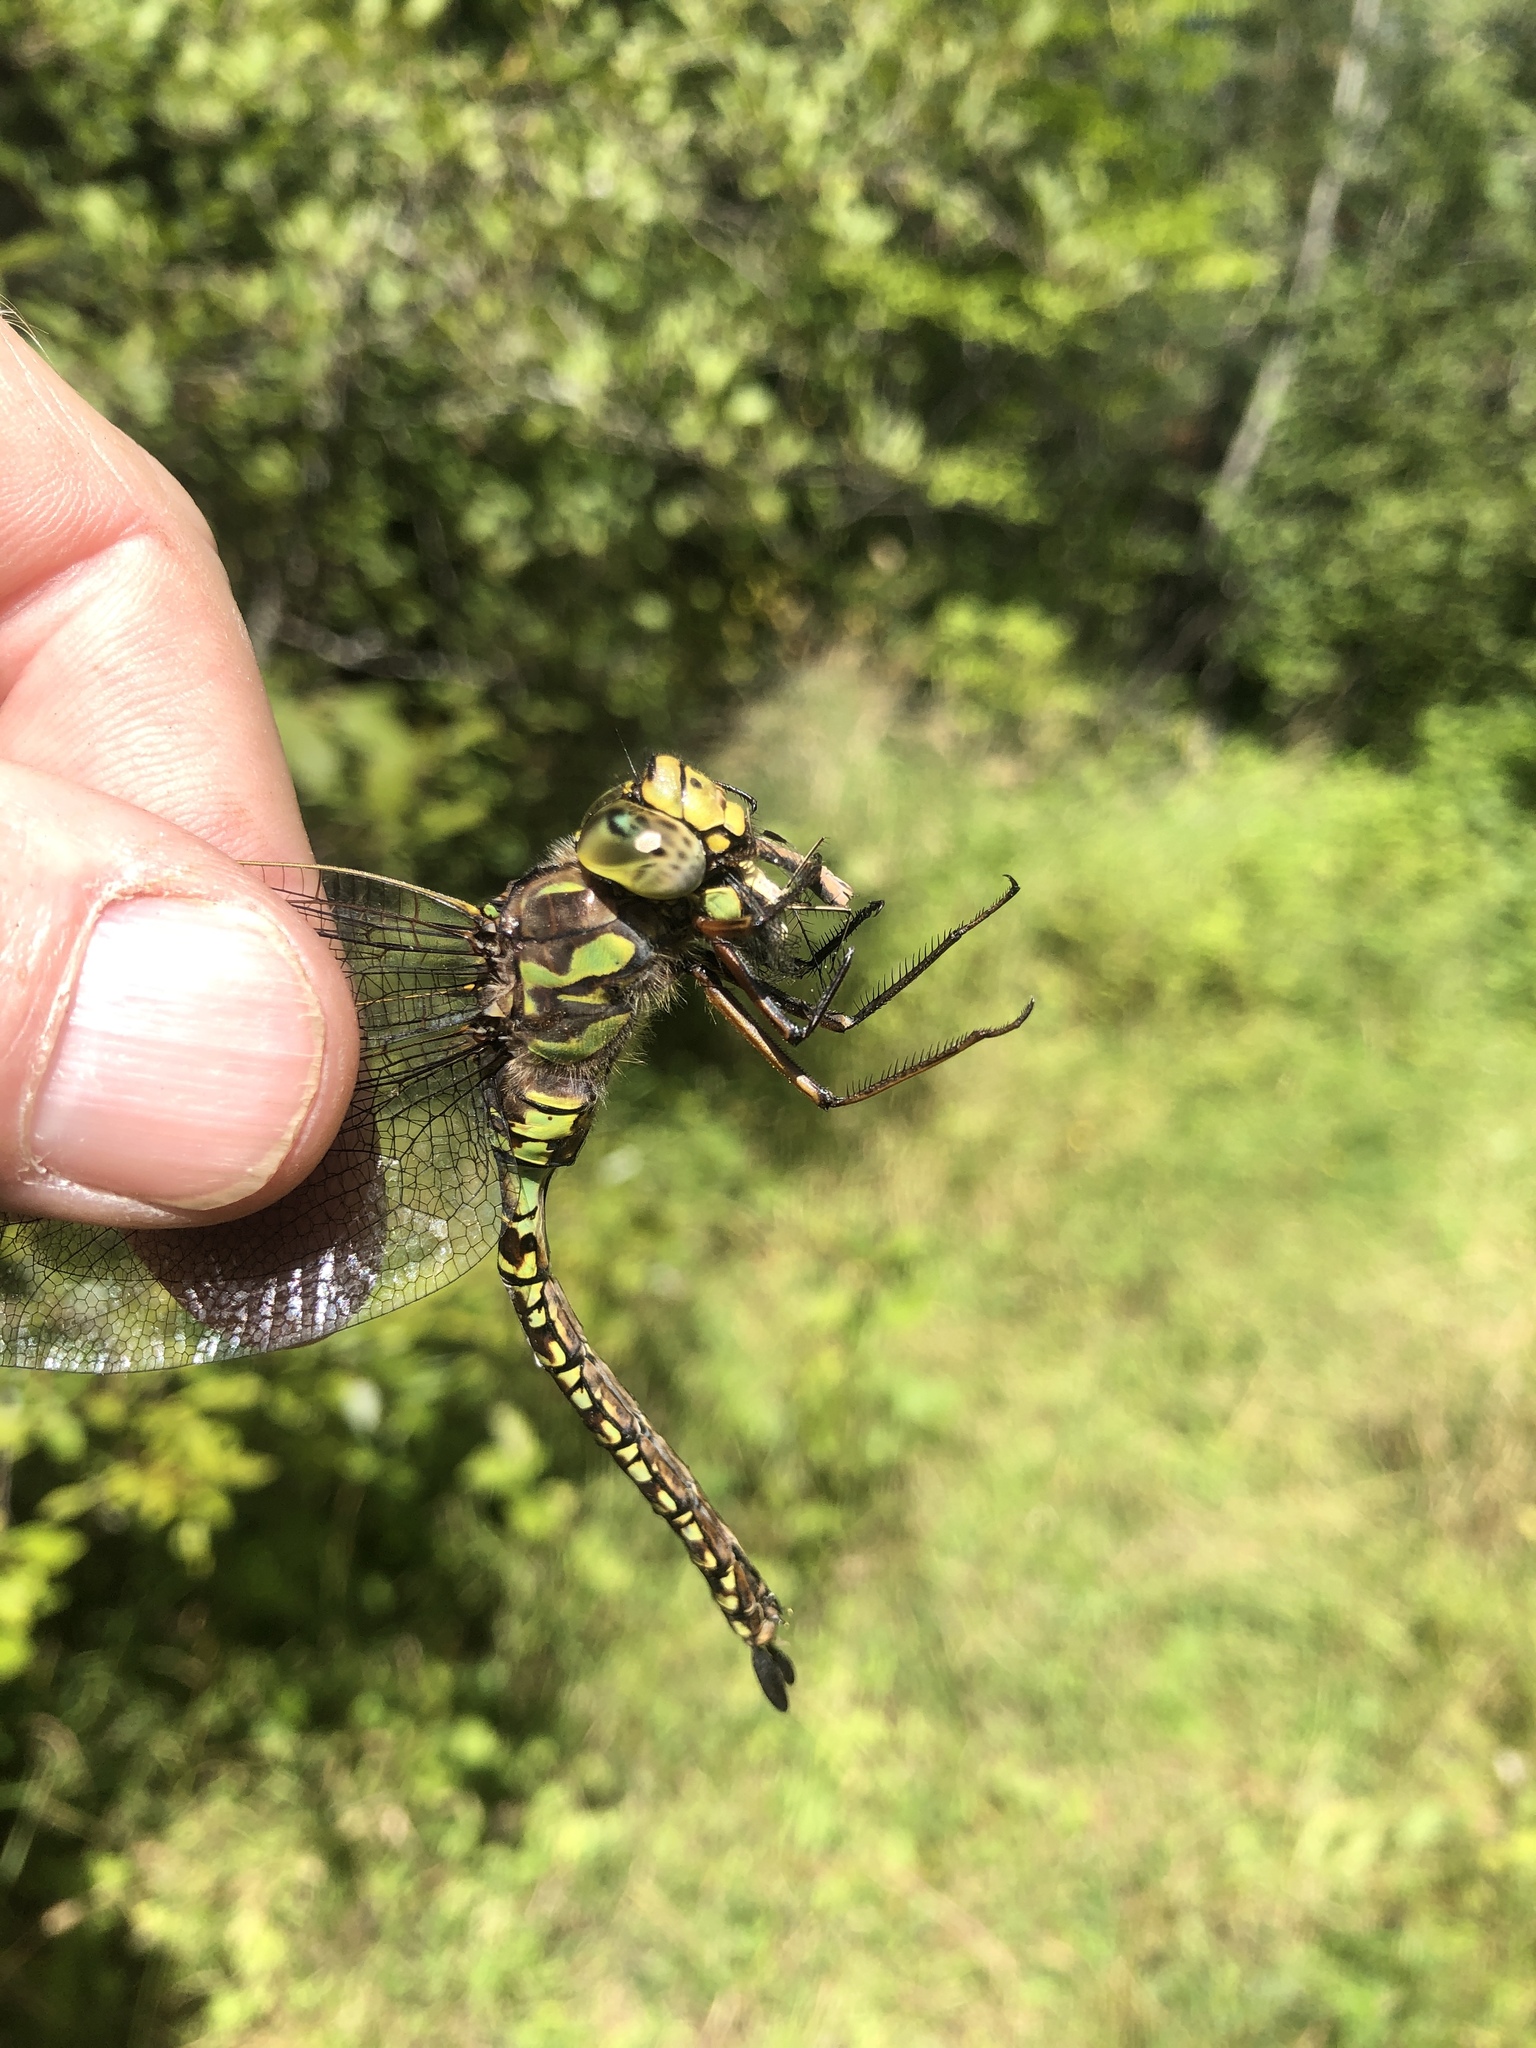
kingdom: Animalia
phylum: Arthropoda
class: Insecta
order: Odonata
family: Aeshnidae
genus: Aeshna
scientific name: Aeshna eremita
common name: Lake darner
